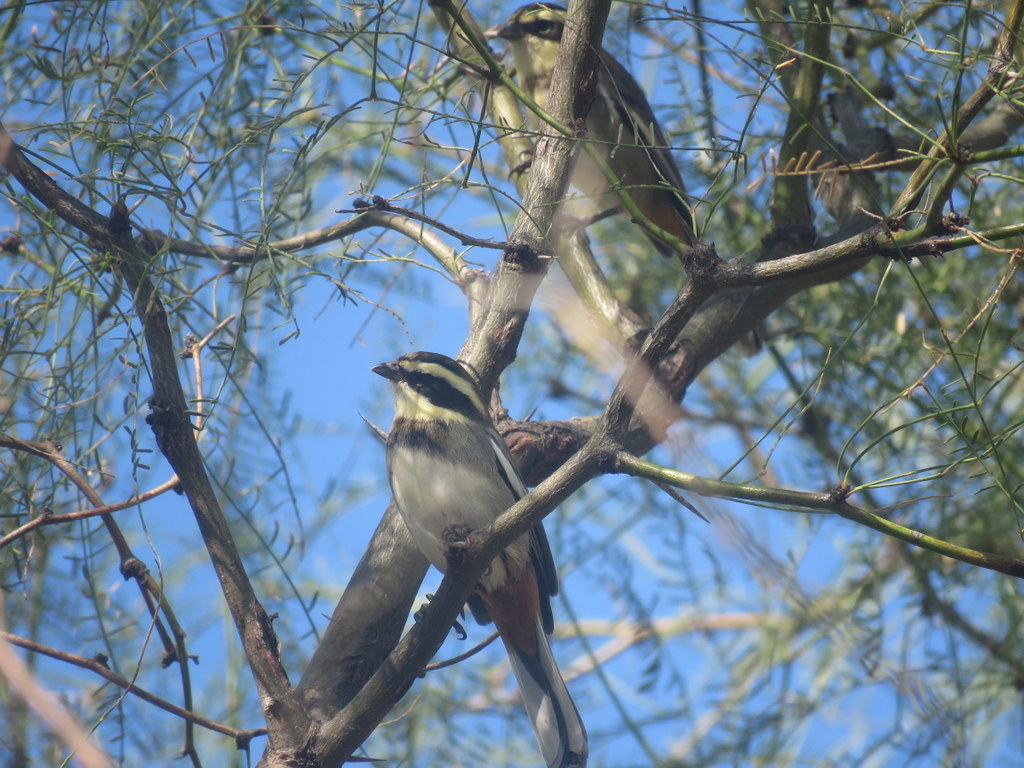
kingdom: Animalia
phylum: Chordata
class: Aves
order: Passeriformes
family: Thraupidae
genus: Microspingus
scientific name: Microspingus torquatus
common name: Ringed warbling-finch
